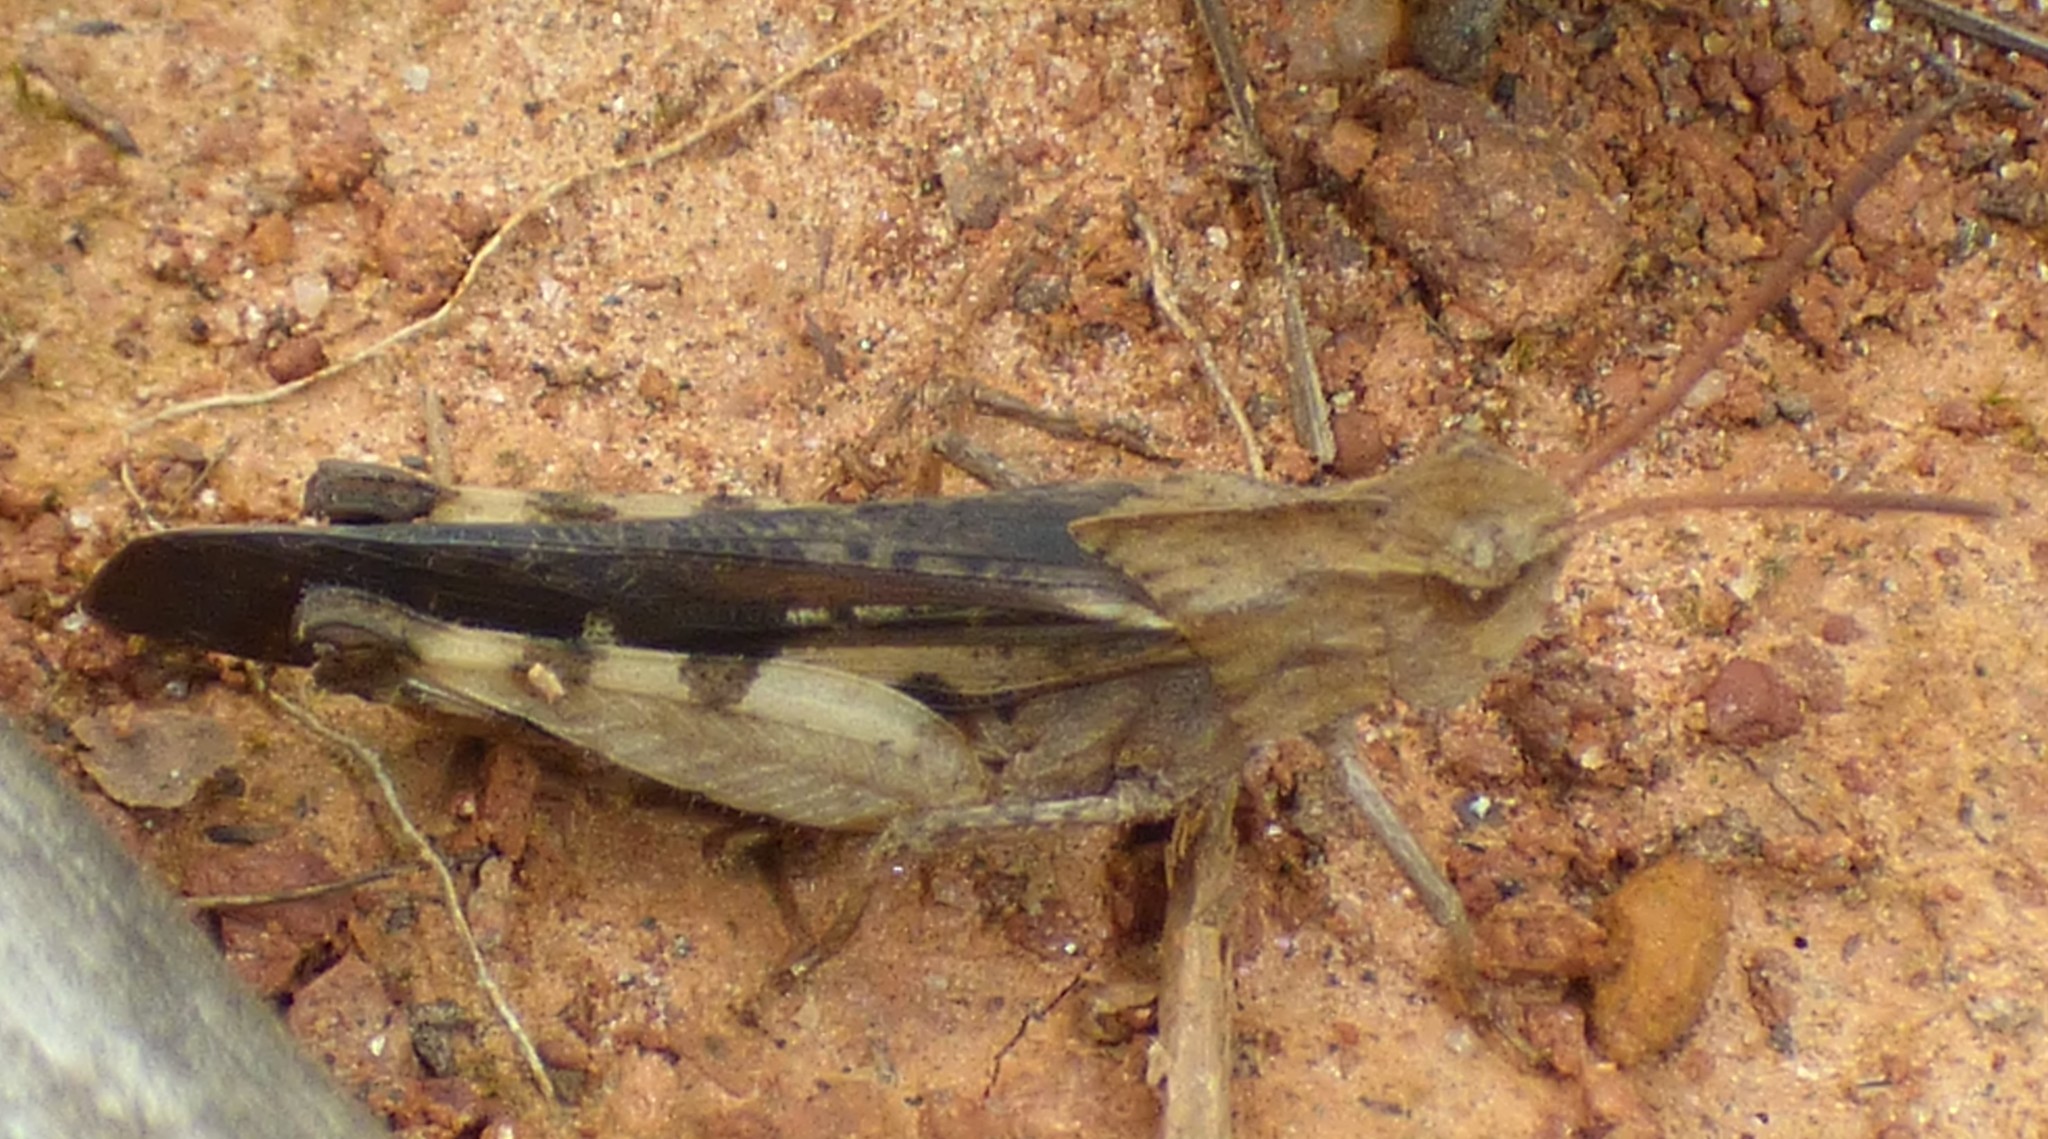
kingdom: Animalia
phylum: Arthropoda
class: Insecta
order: Orthoptera
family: Acrididae
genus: Chortophaga
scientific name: Chortophaga viridifasciata
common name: Green-striped grasshopper
